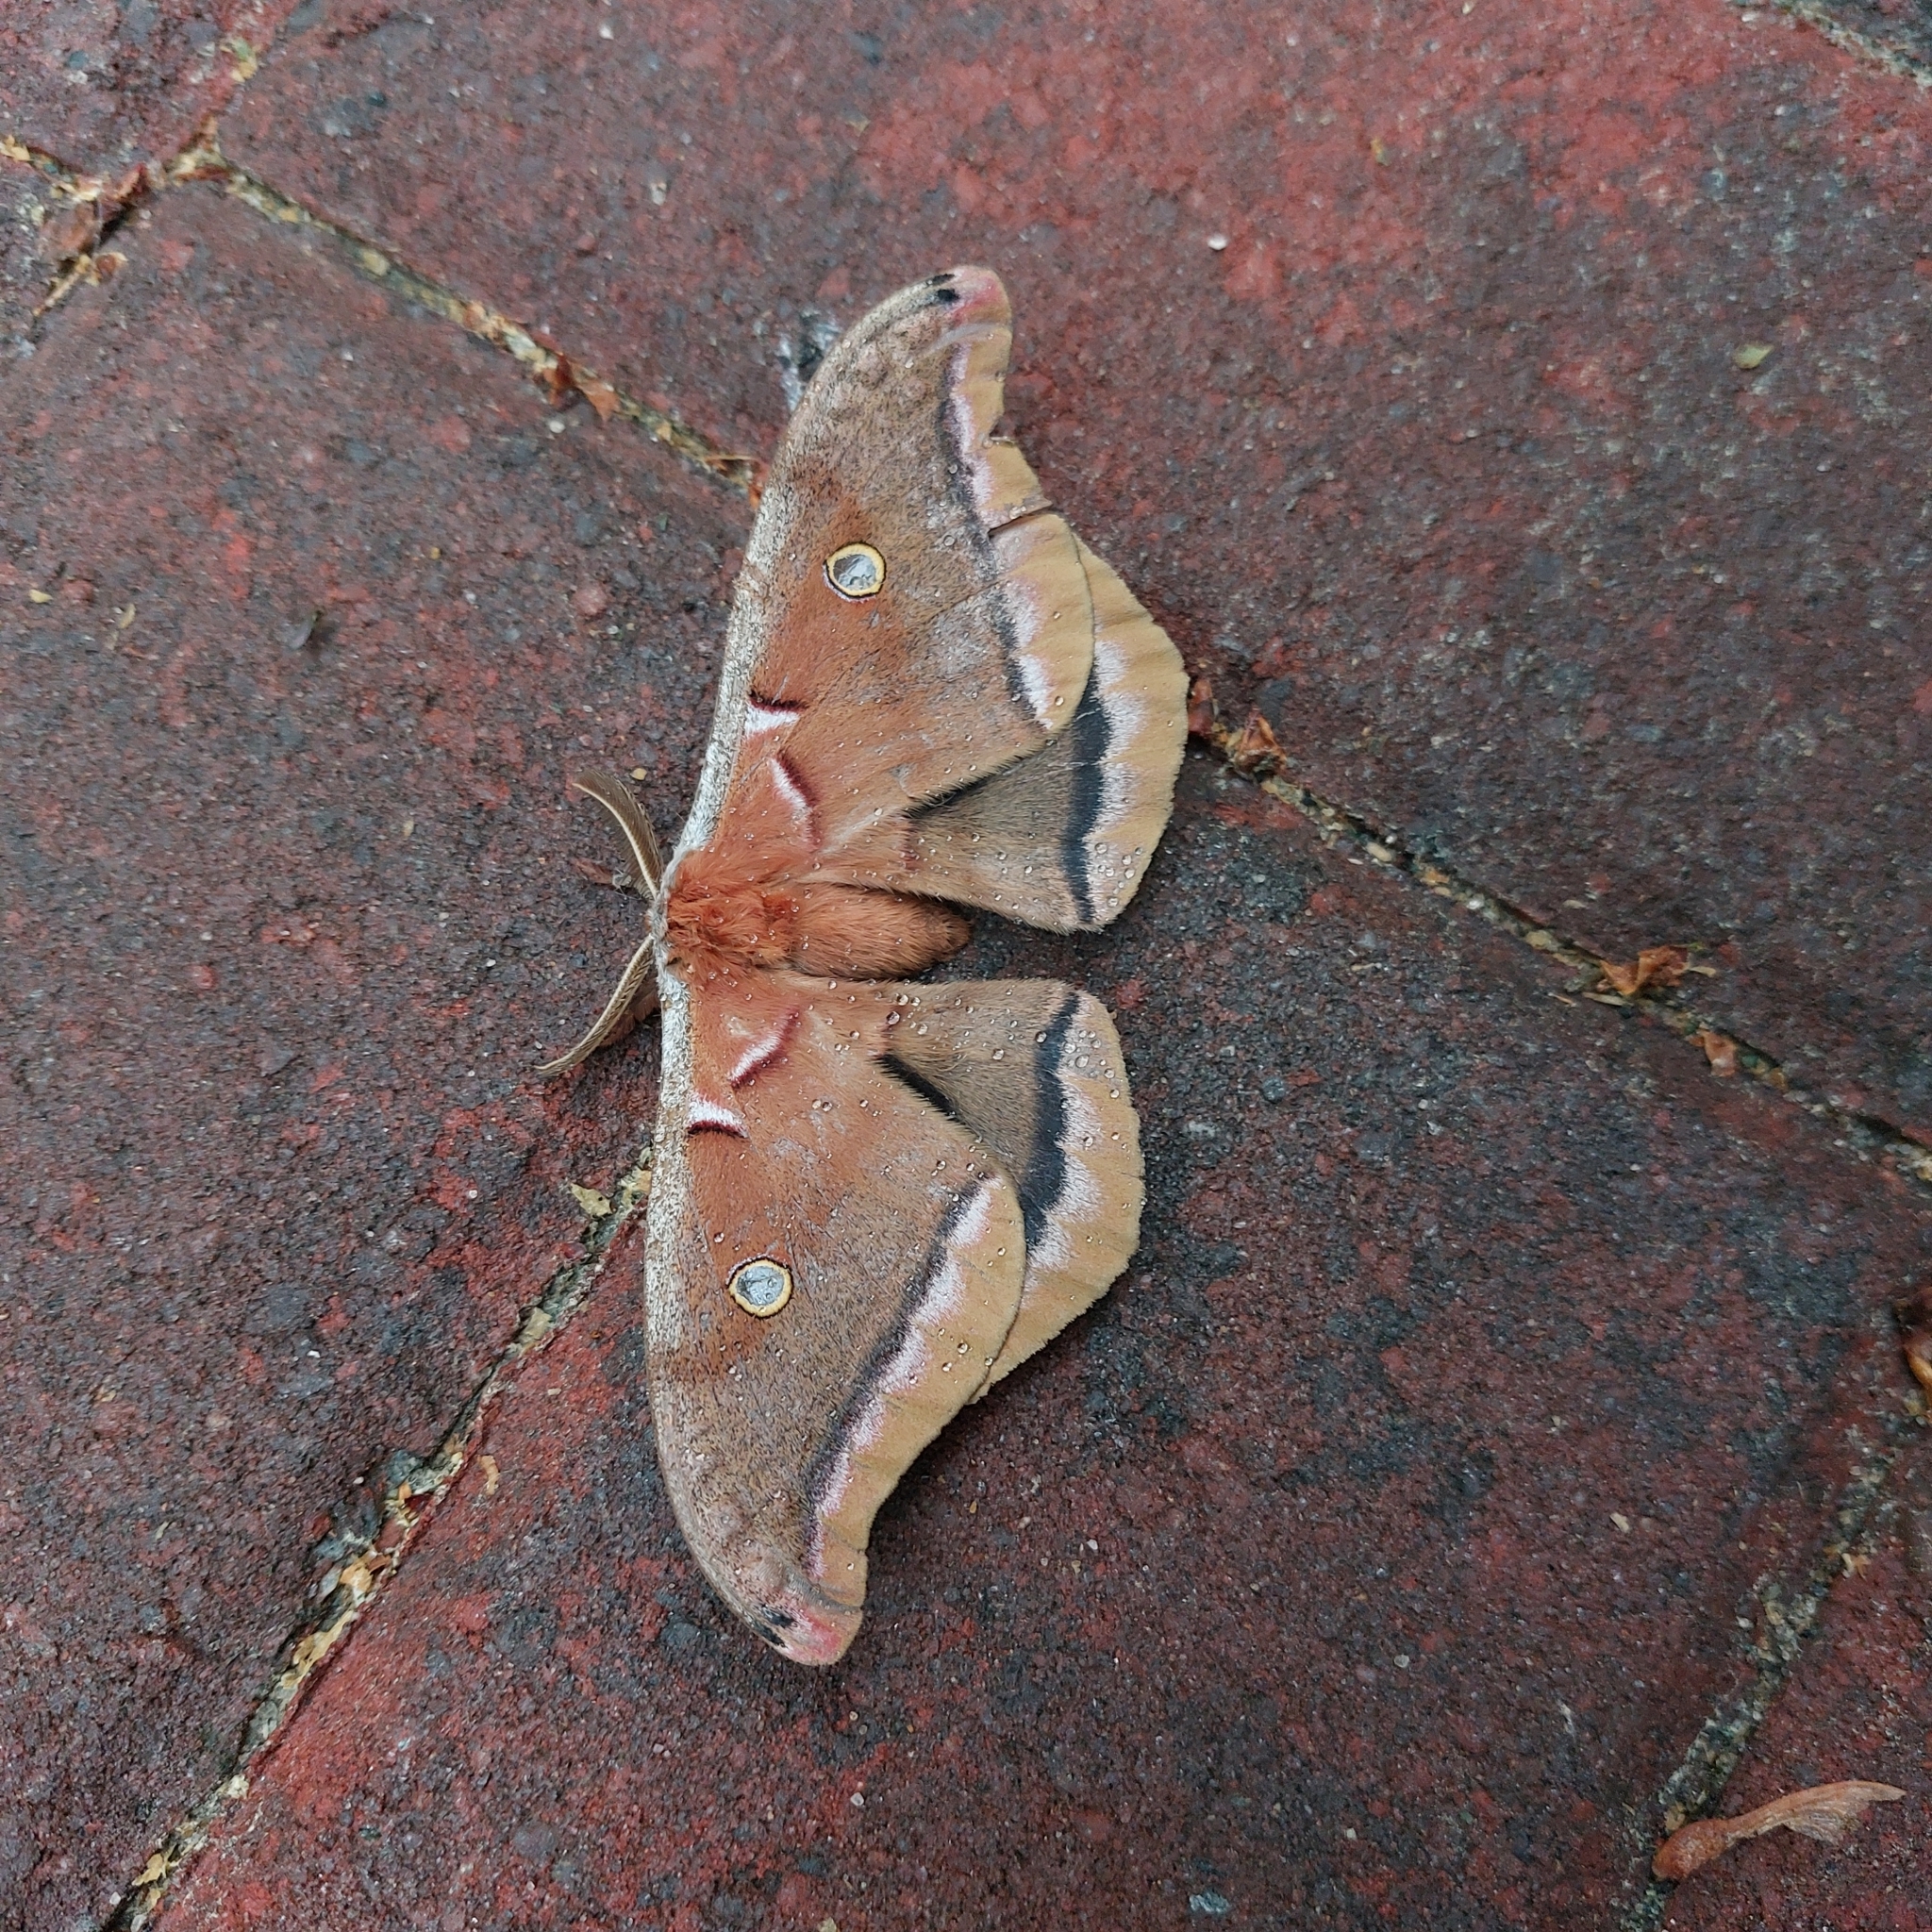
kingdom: Animalia
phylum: Arthropoda
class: Insecta
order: Lepidoptera
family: Saturniidae
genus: Antheraea
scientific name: Antheraea polyphemus
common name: Polyphemus moth
